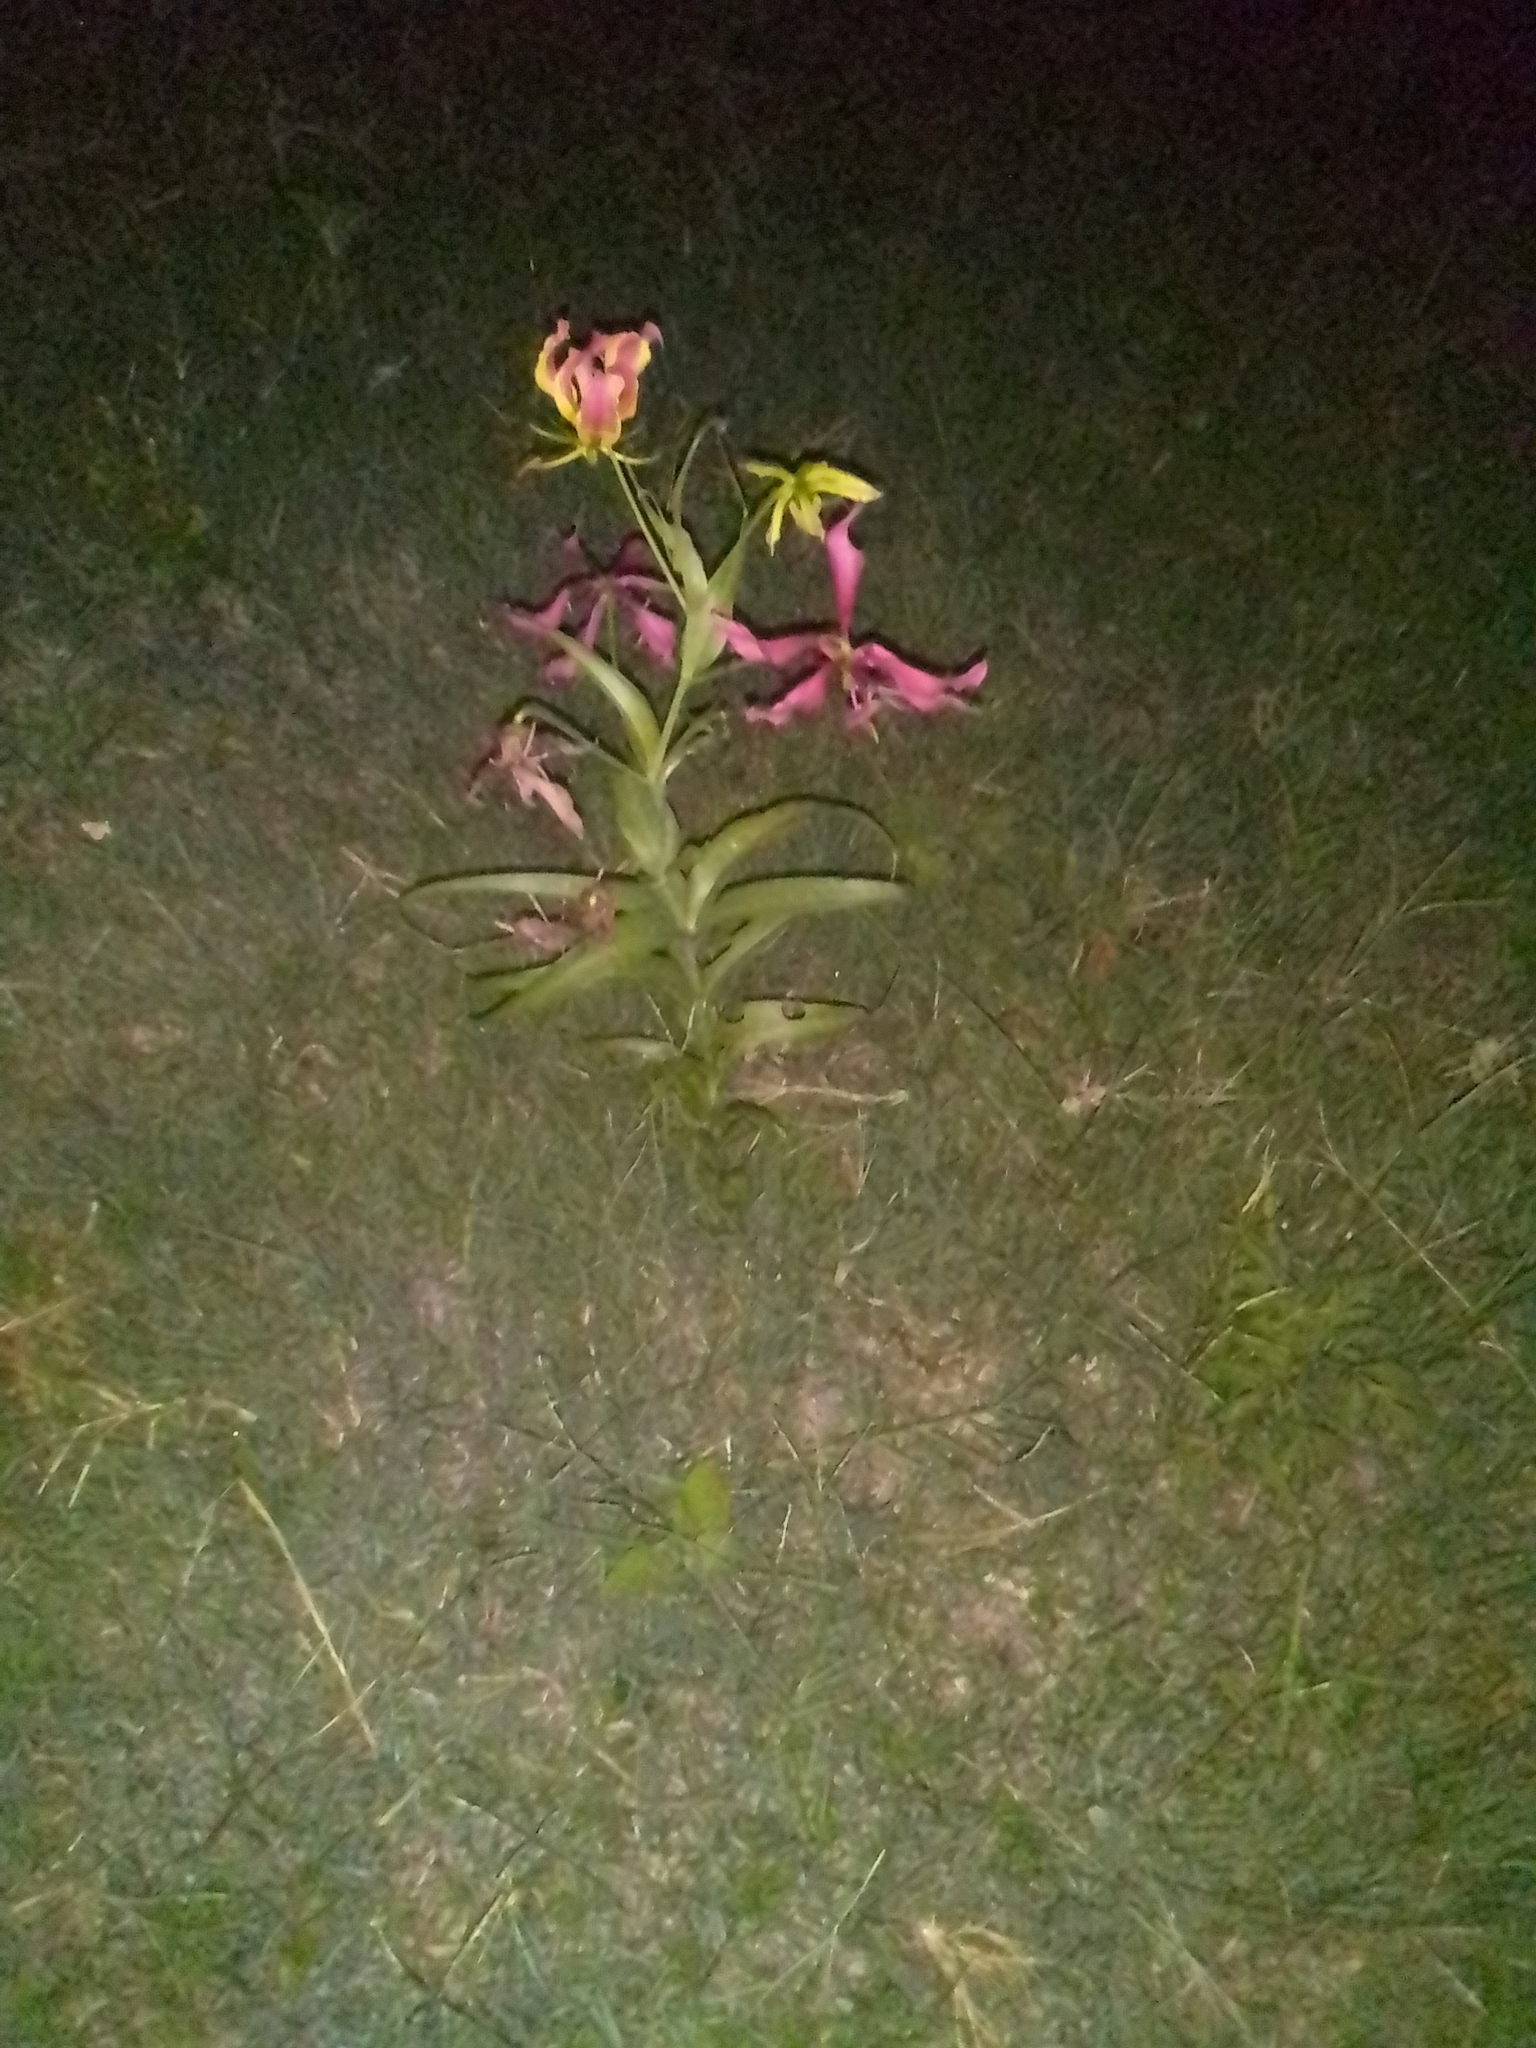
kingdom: Plantae
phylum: Tracheophyta
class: Liliopsida
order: Liliales
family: Colchicaceae
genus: Gloriosa
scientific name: Gloriosa superba
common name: Flame lily
